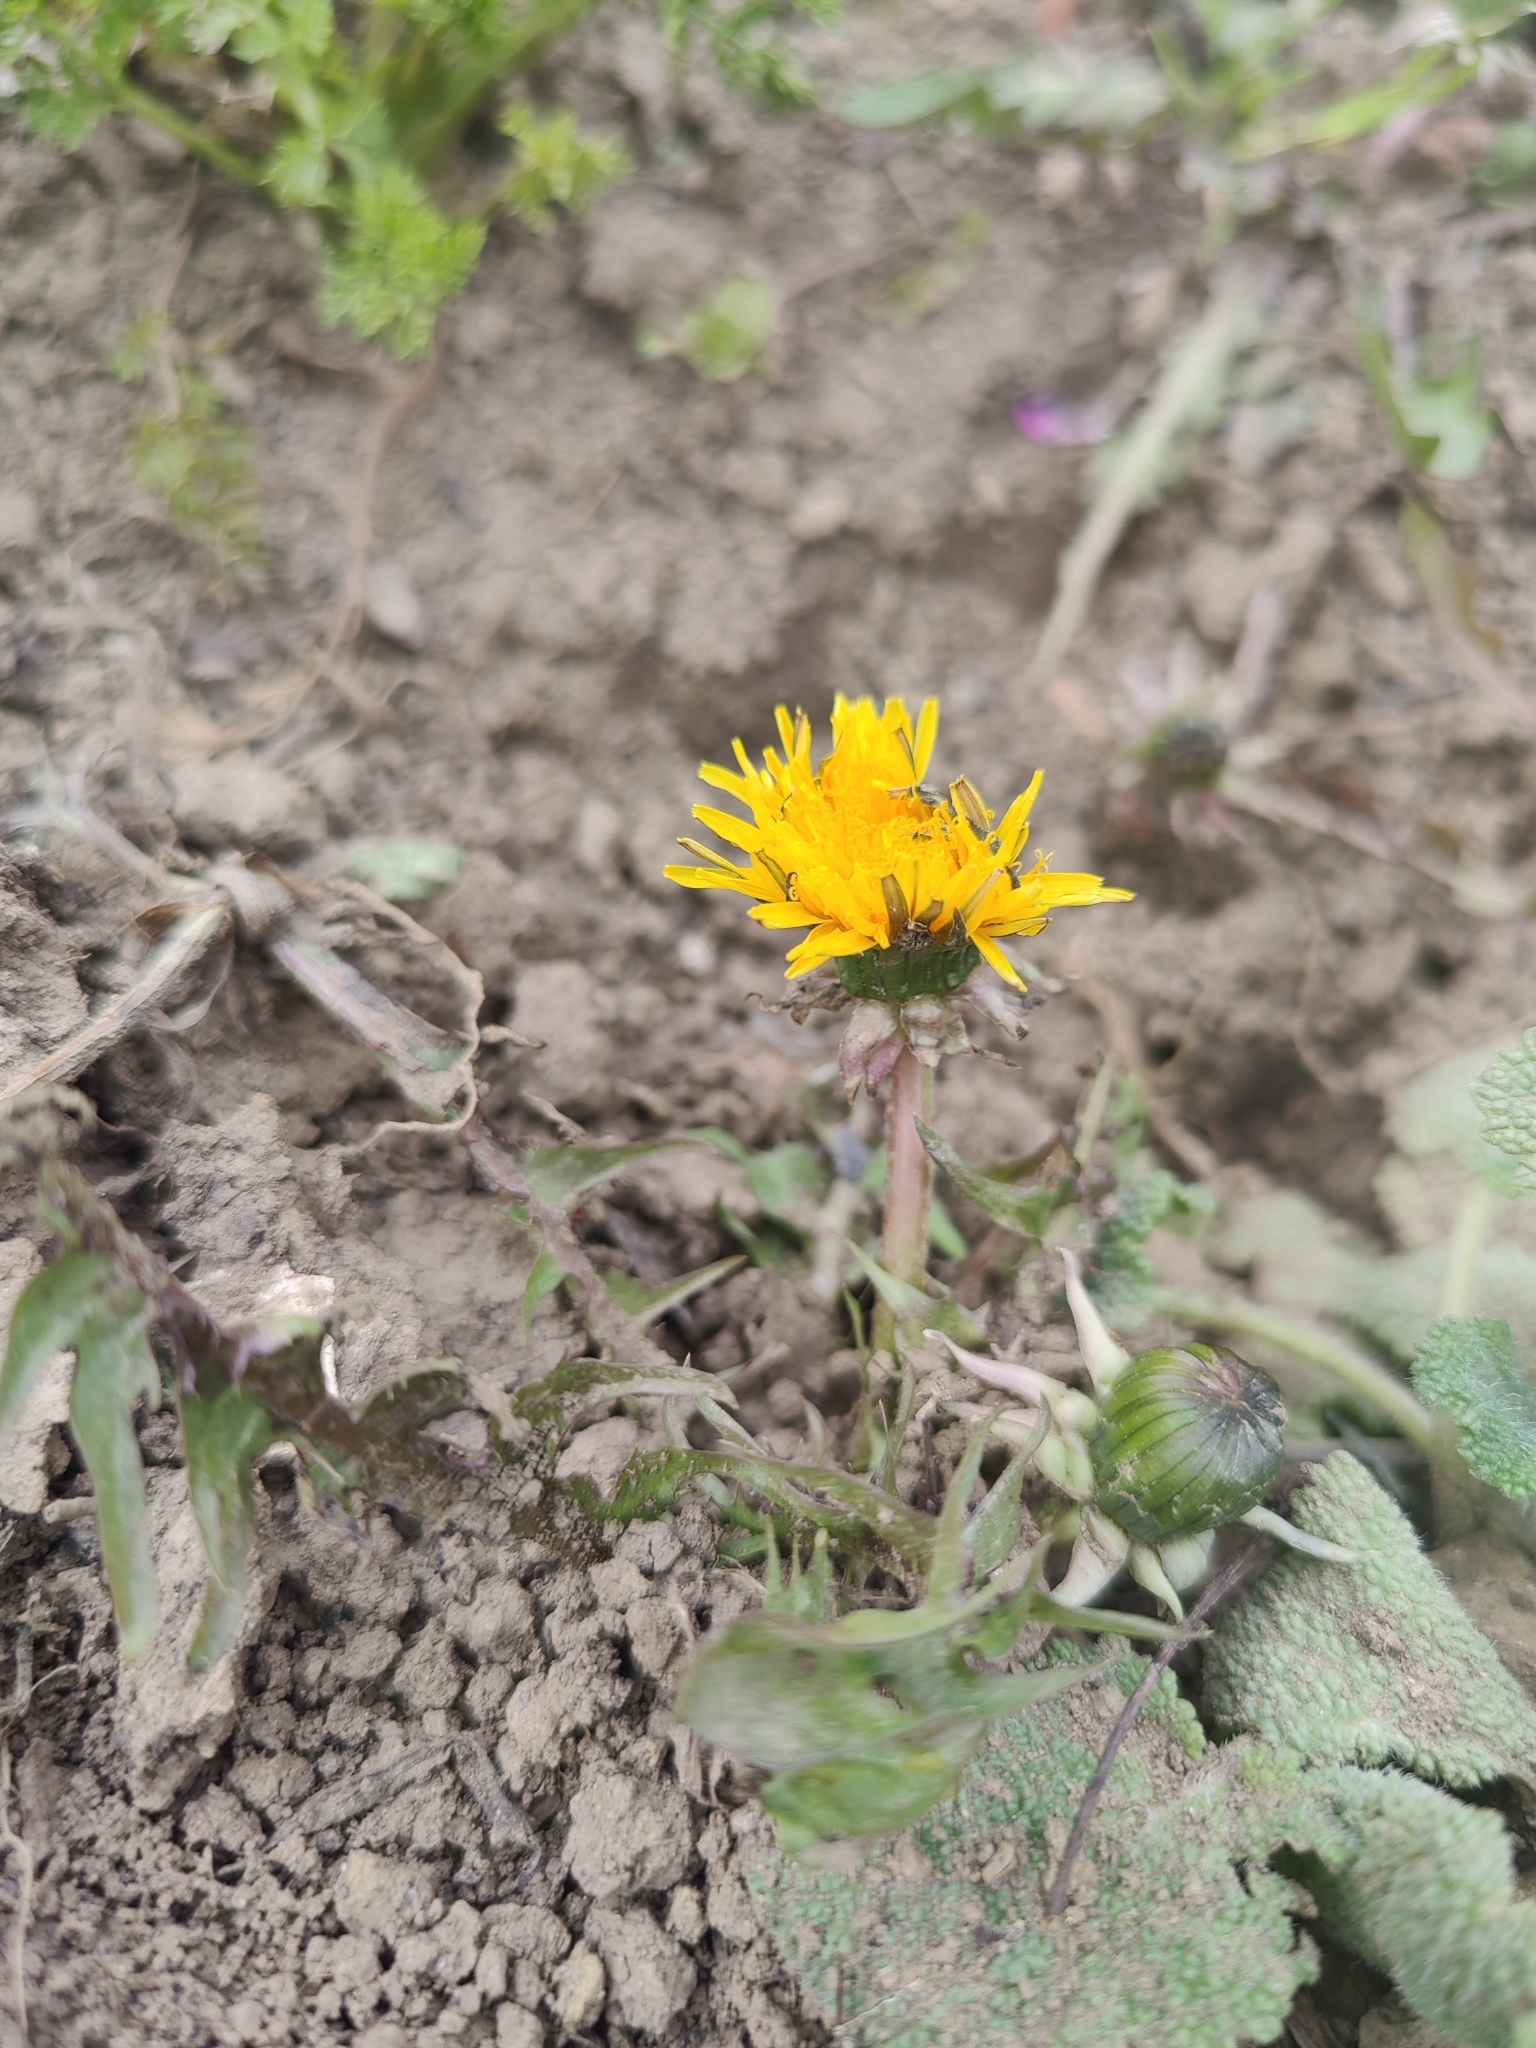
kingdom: Plantae
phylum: Tracheophyta
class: Magnoliopsida
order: Asterales
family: Asteraceae
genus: Taraxacum
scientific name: Taraxacum officinale
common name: Common dandelion
